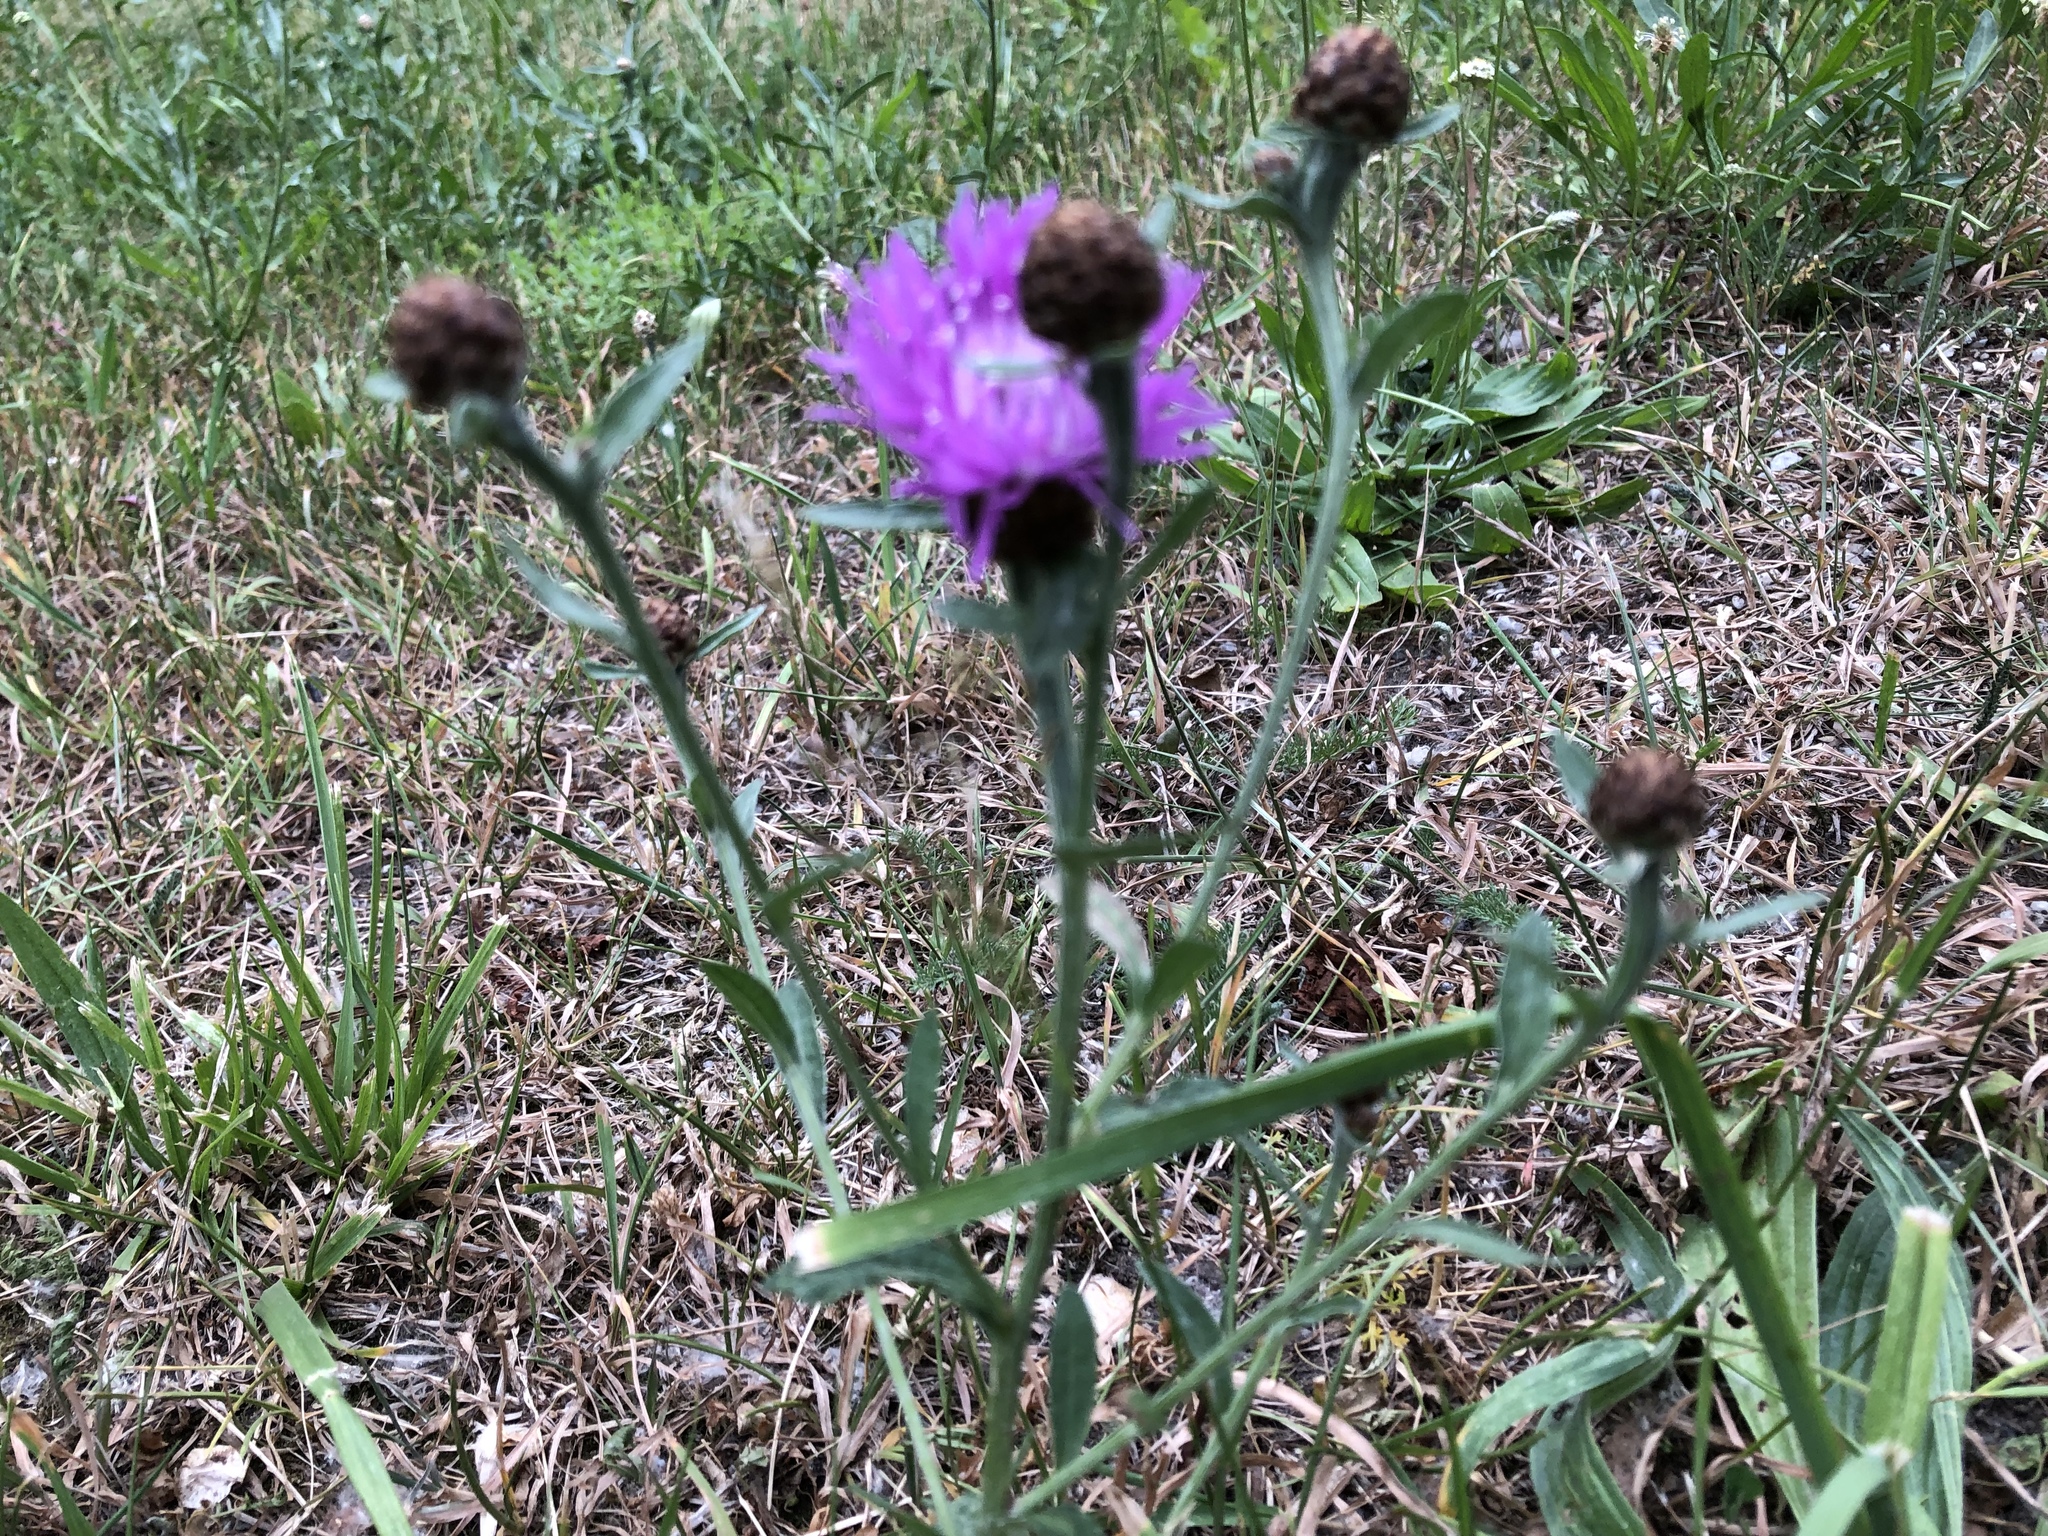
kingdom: Plantae
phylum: Tracheophyta
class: Magnoliopsida
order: Asterales
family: Asteraceae
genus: Centaurea
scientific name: Centaurea jacea
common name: Brown knapweed
